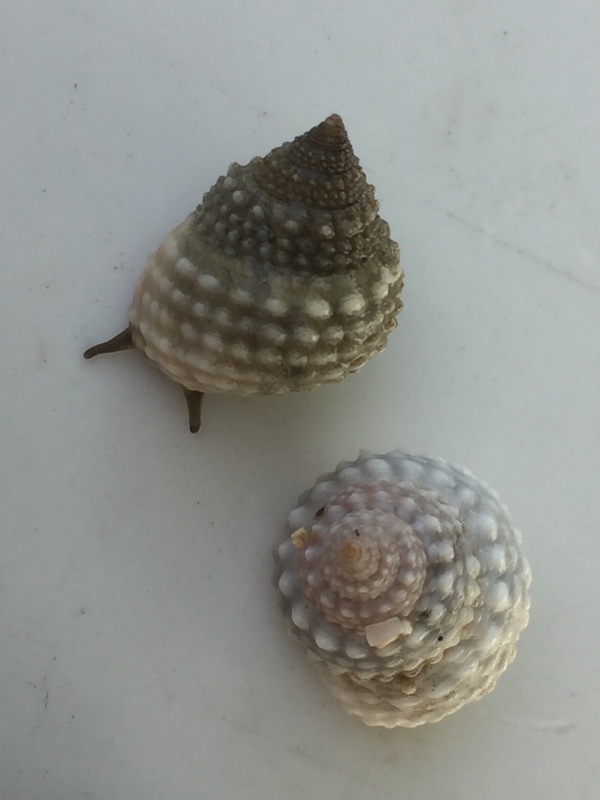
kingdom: Animalia
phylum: Mollusca
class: Gastropoda
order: Littorinimorpha
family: Littorinidae
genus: Cenchritis
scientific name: Cenchritis muricatus
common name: Beaded periwinkle
